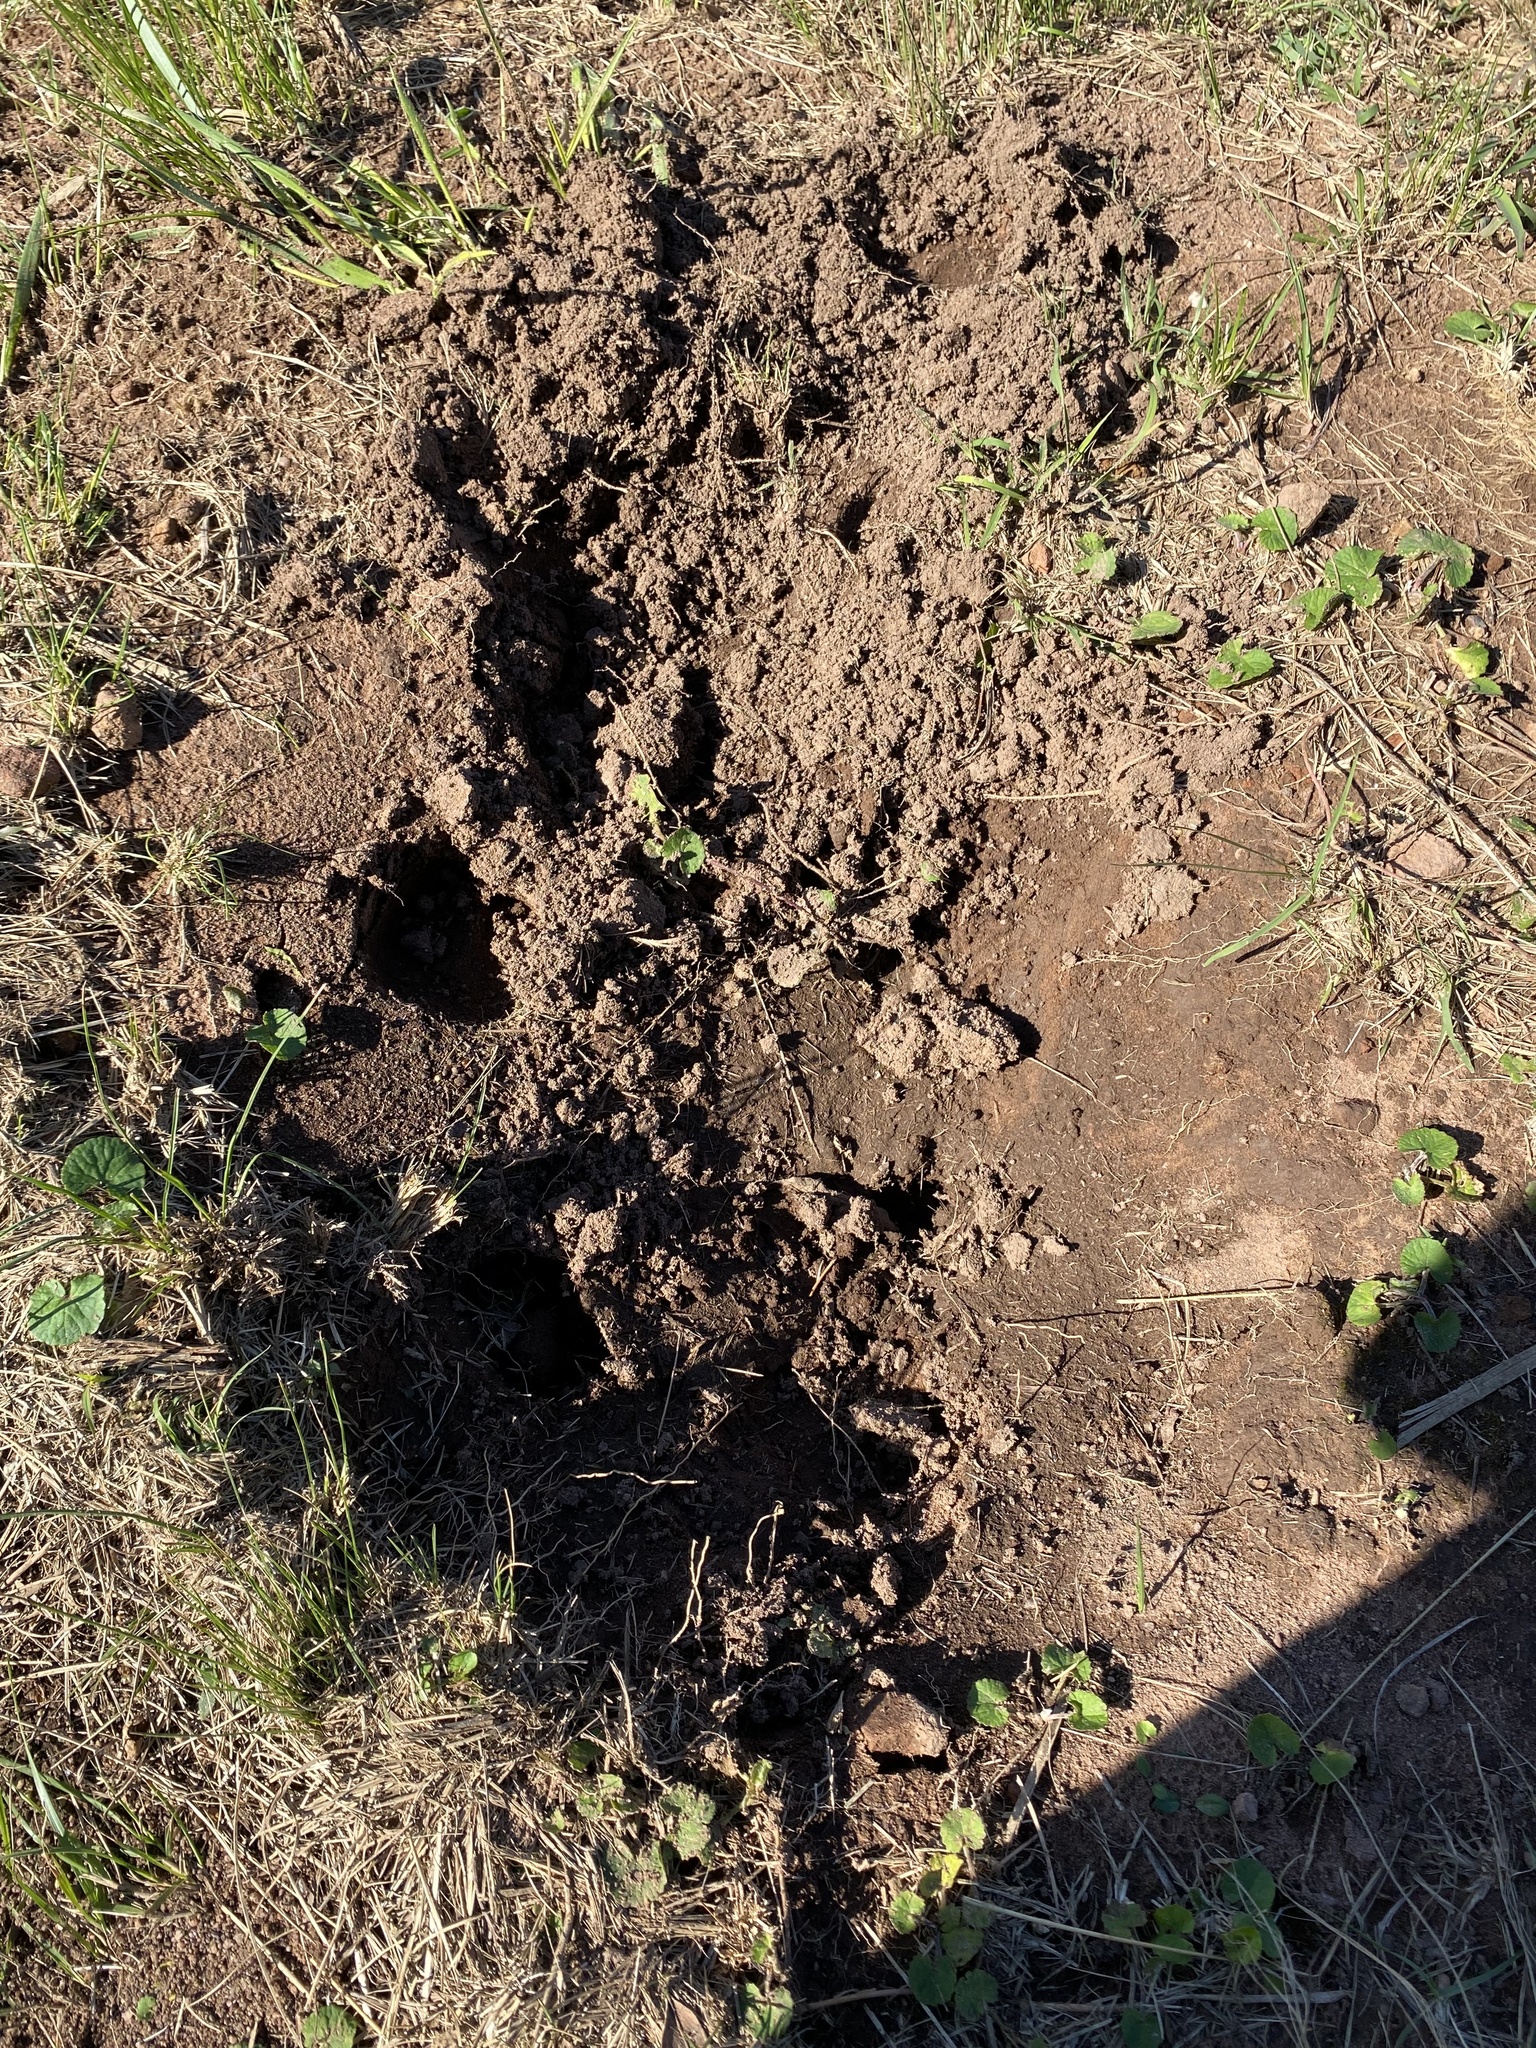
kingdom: Animalia
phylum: Chordata
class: Mammalia
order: Artiodactyla
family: Suidae
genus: Potamochoerus
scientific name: Potamochoerus larvatus
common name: Bushpig
